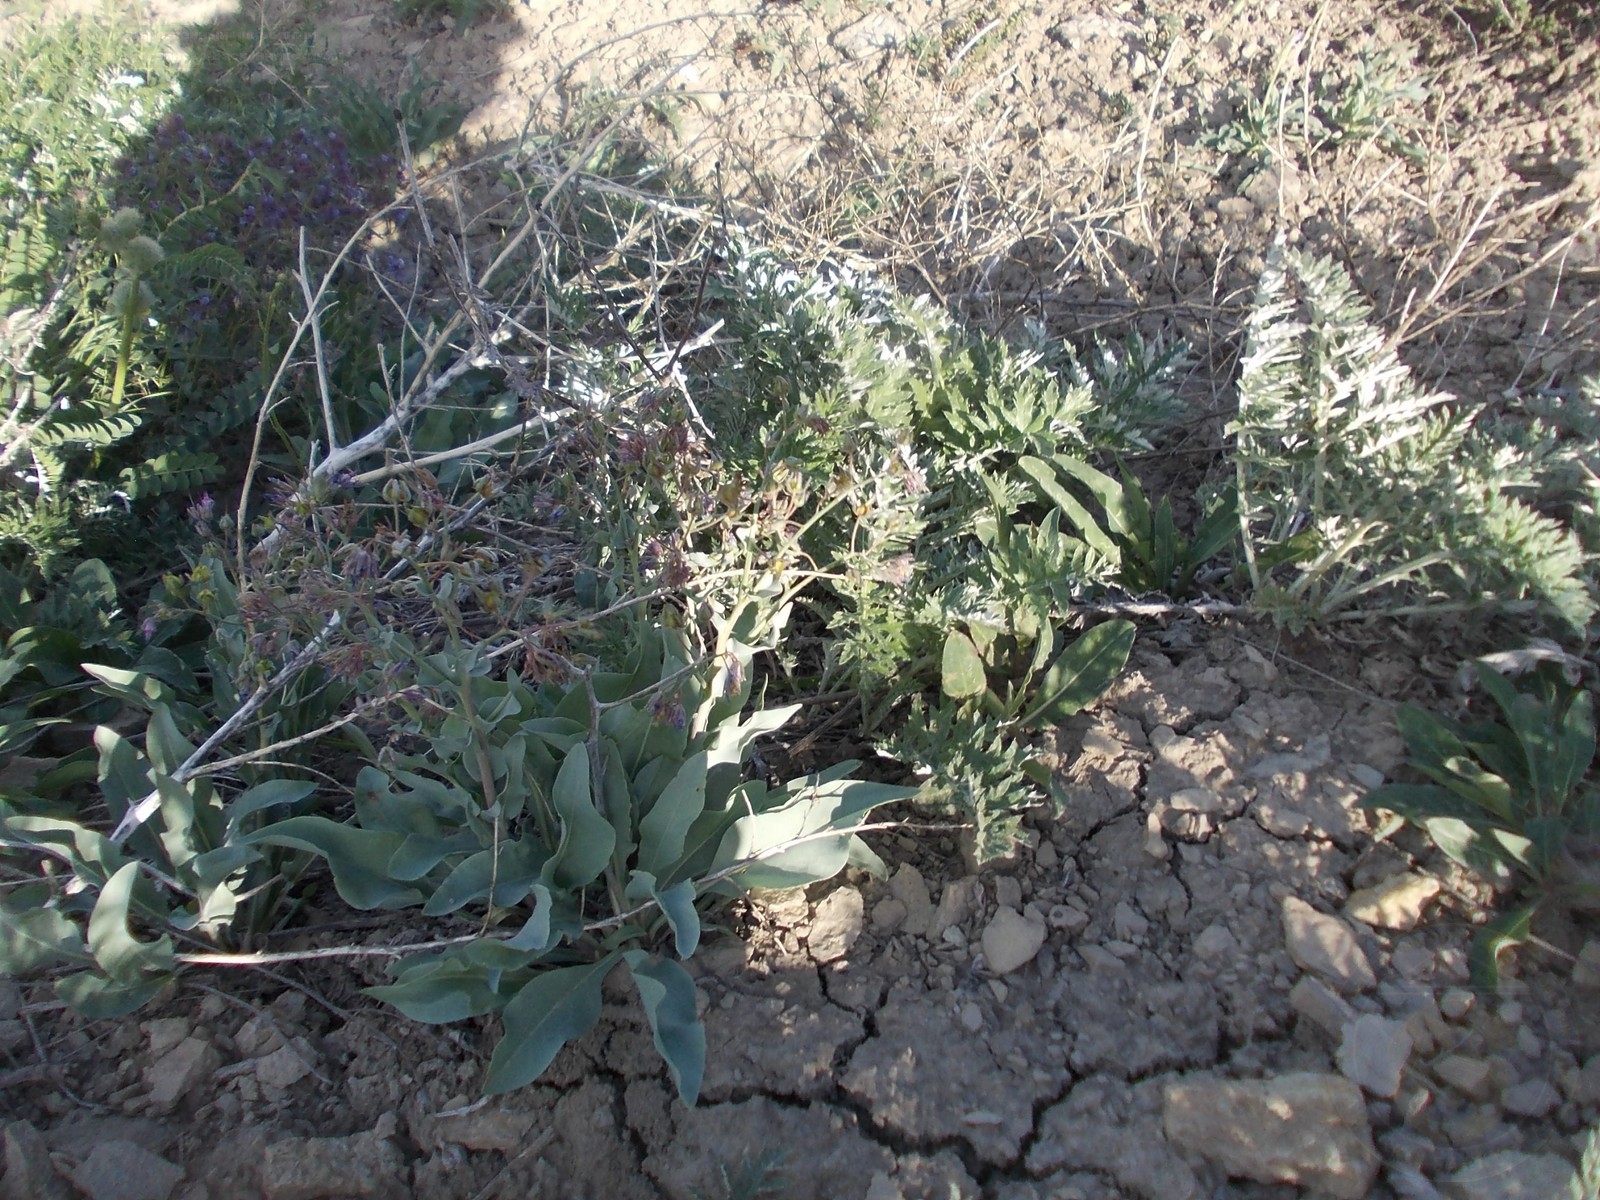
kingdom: Plantae
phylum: Tracheophyta
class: Magnoliopsida
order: Boraginales
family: Boraginaceae
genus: Rindera
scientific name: Rindera tetraspis
